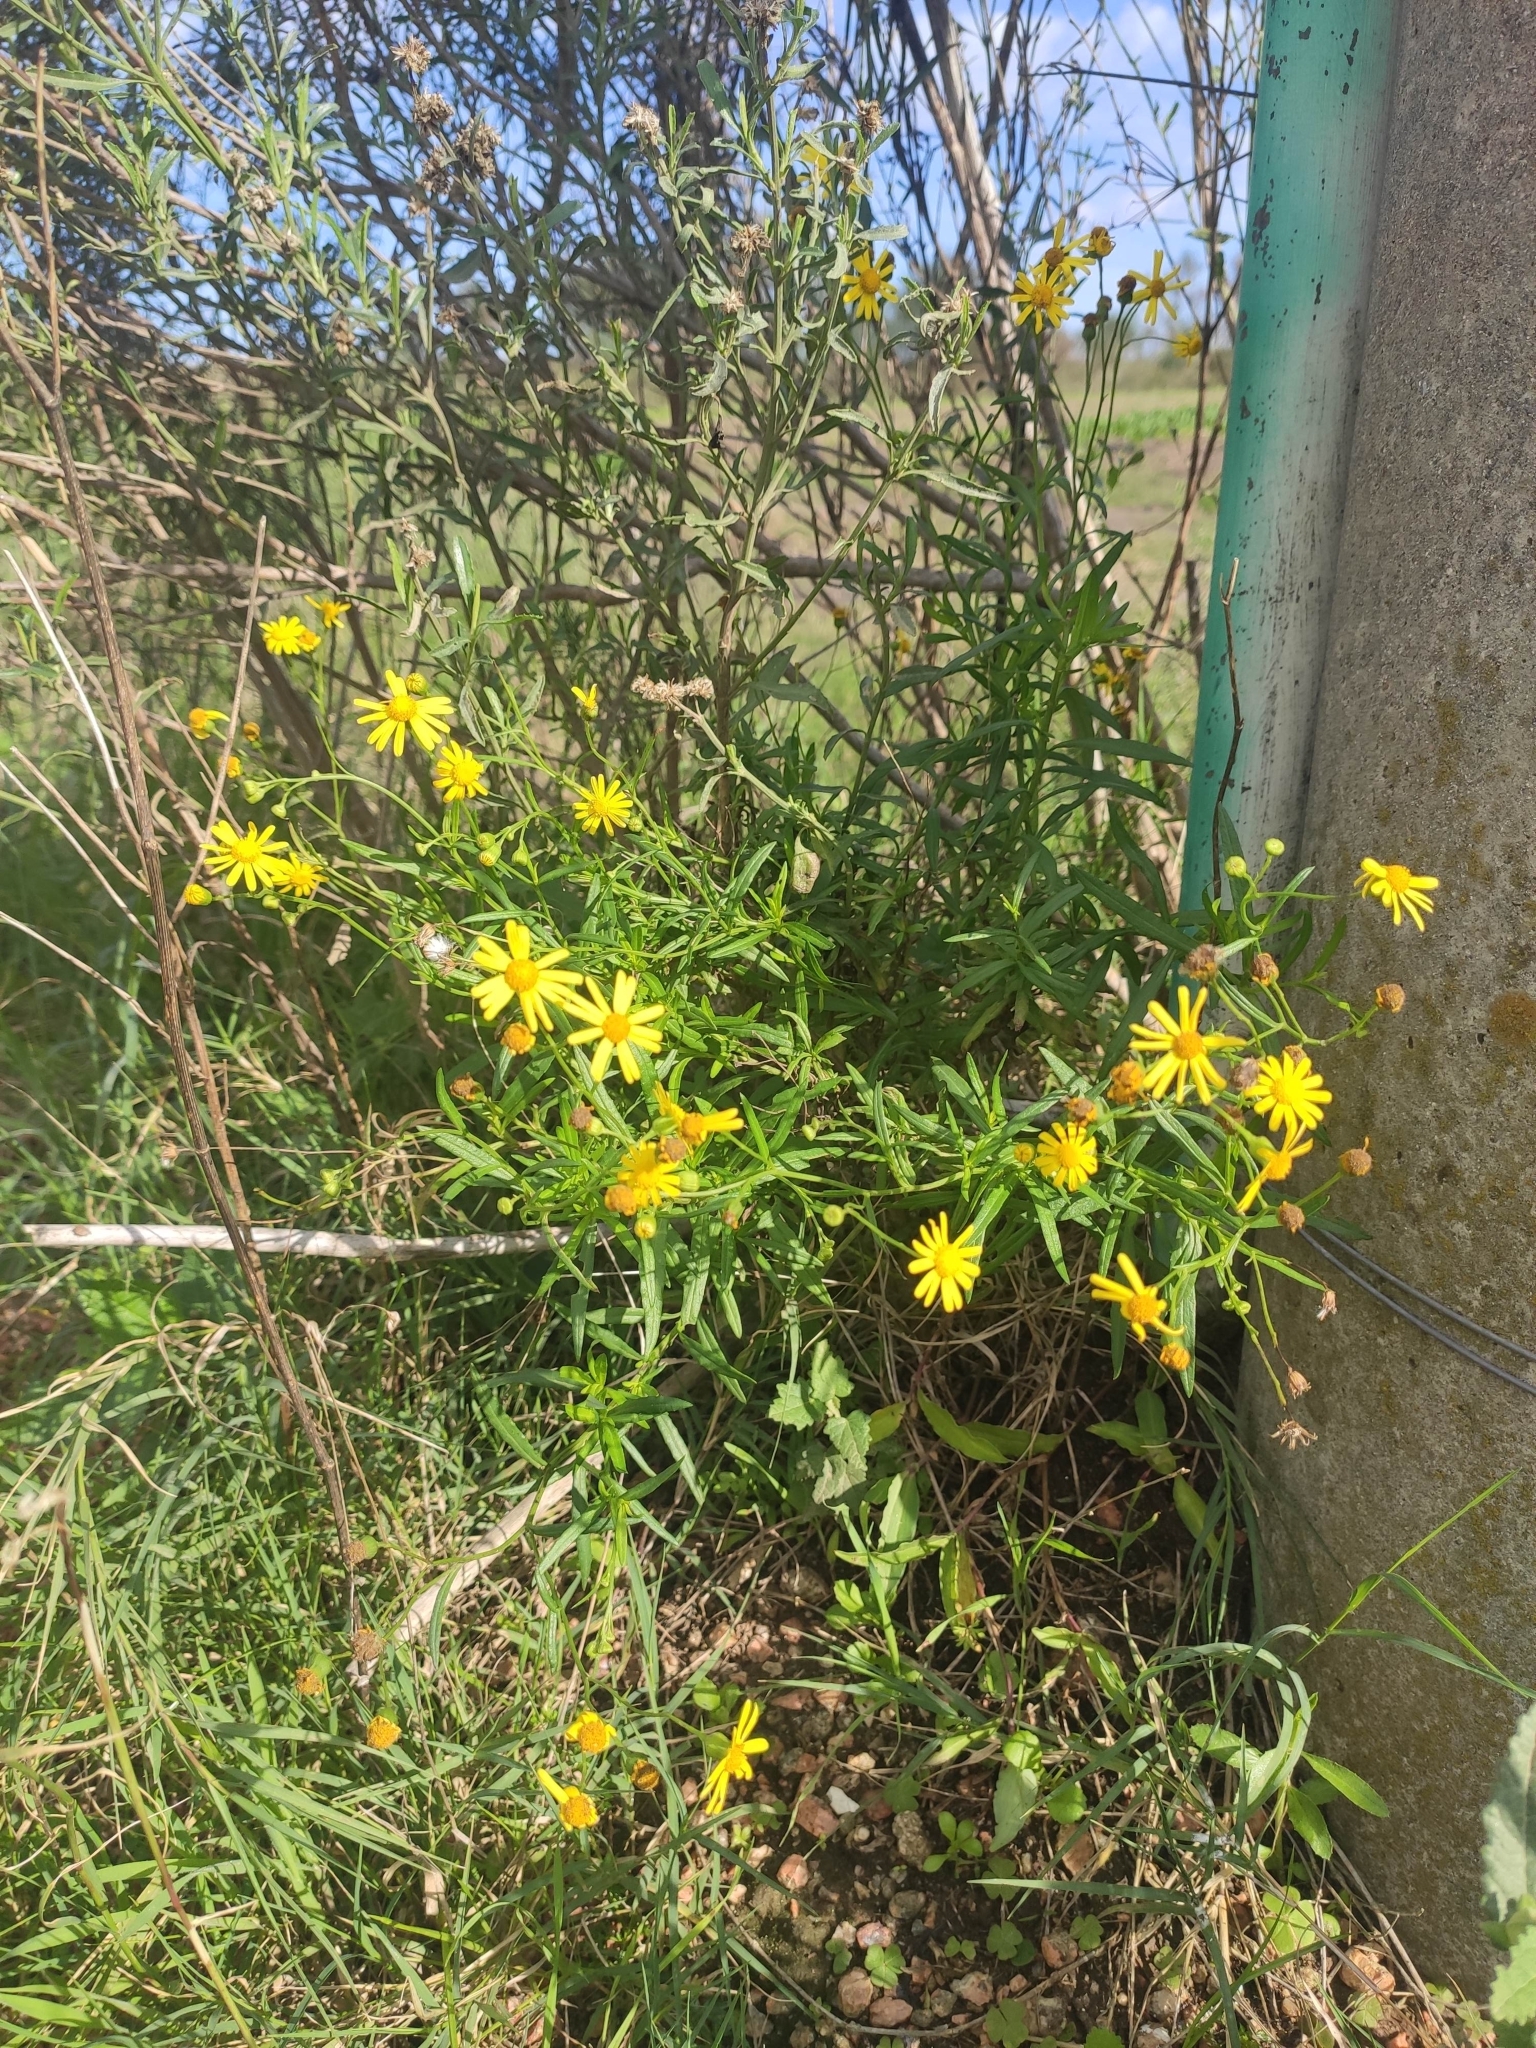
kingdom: Plantae
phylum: Tracheophyta
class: Magnoliopsida
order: Asterales
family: Asteraceae
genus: Senecio
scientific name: Senecio madagascariensis
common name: Madagascar ragwort
